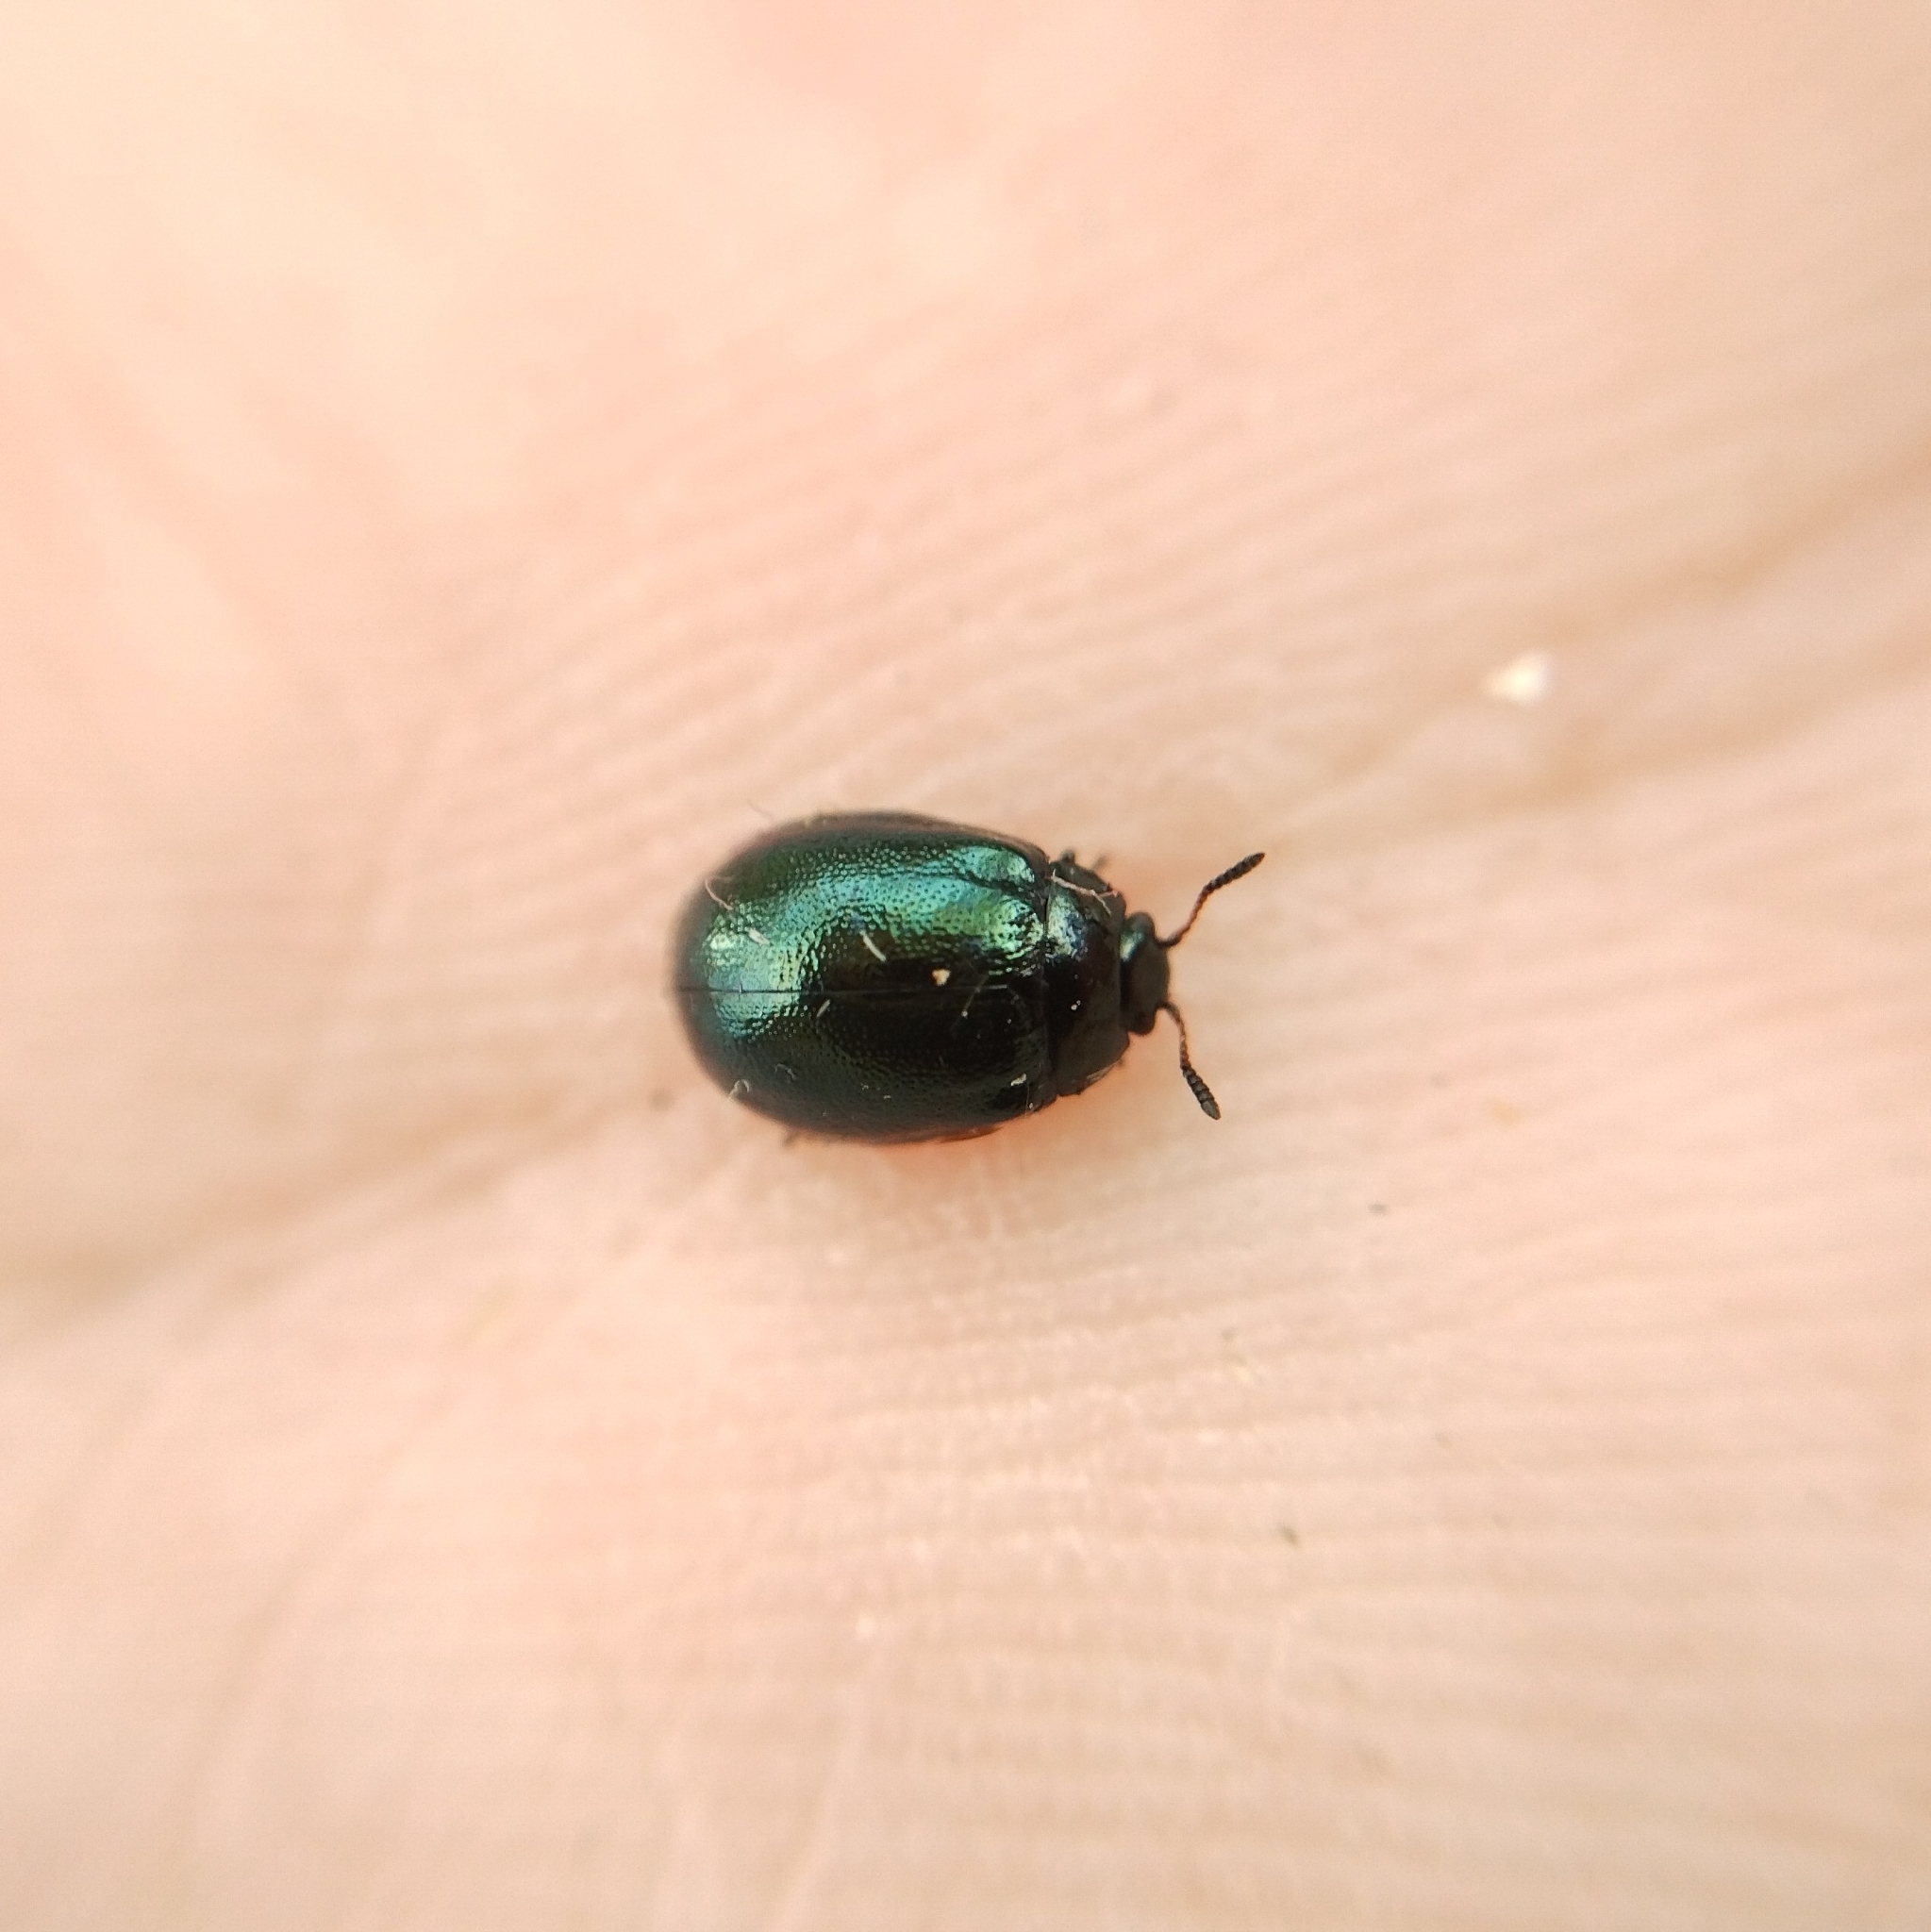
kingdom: Animalia
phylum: Arthropoda
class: Insecta
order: Coleoptera
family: Chrysomelidae
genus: Plagiodera
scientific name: Plagiodera versicolora
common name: Imported willow leaf beetle
